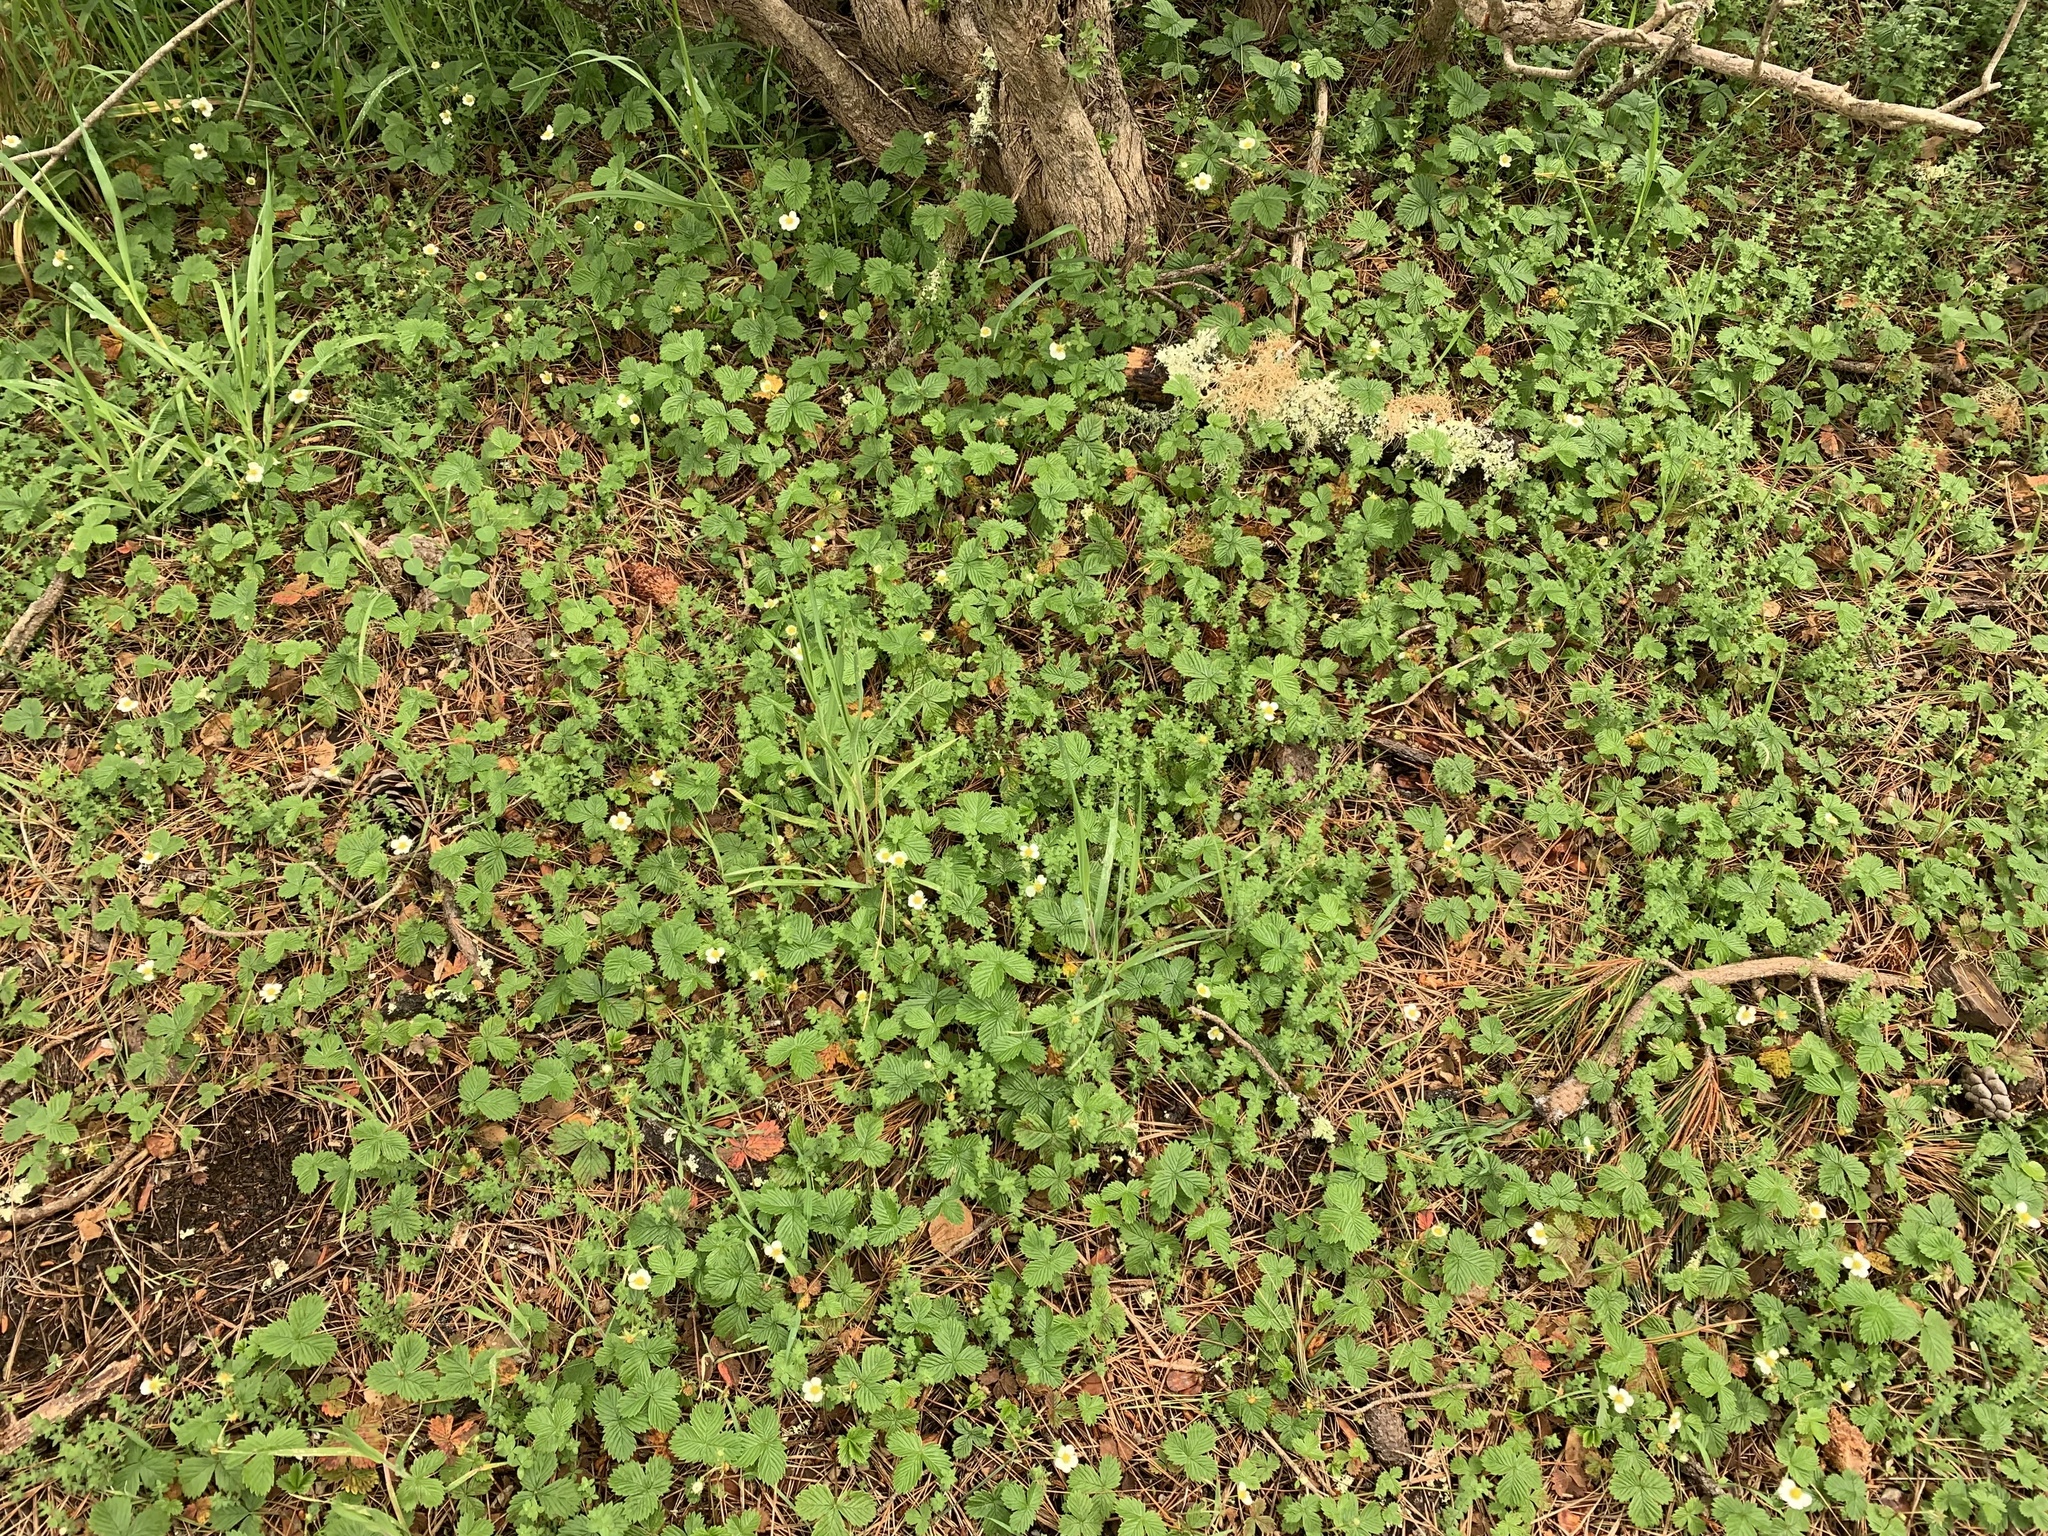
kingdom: Plantae
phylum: Tracheophyta
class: Magnoliopsida
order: Rosales
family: Rosaceae
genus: Fragaria
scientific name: Fragaria vesca
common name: Wild strawberry
